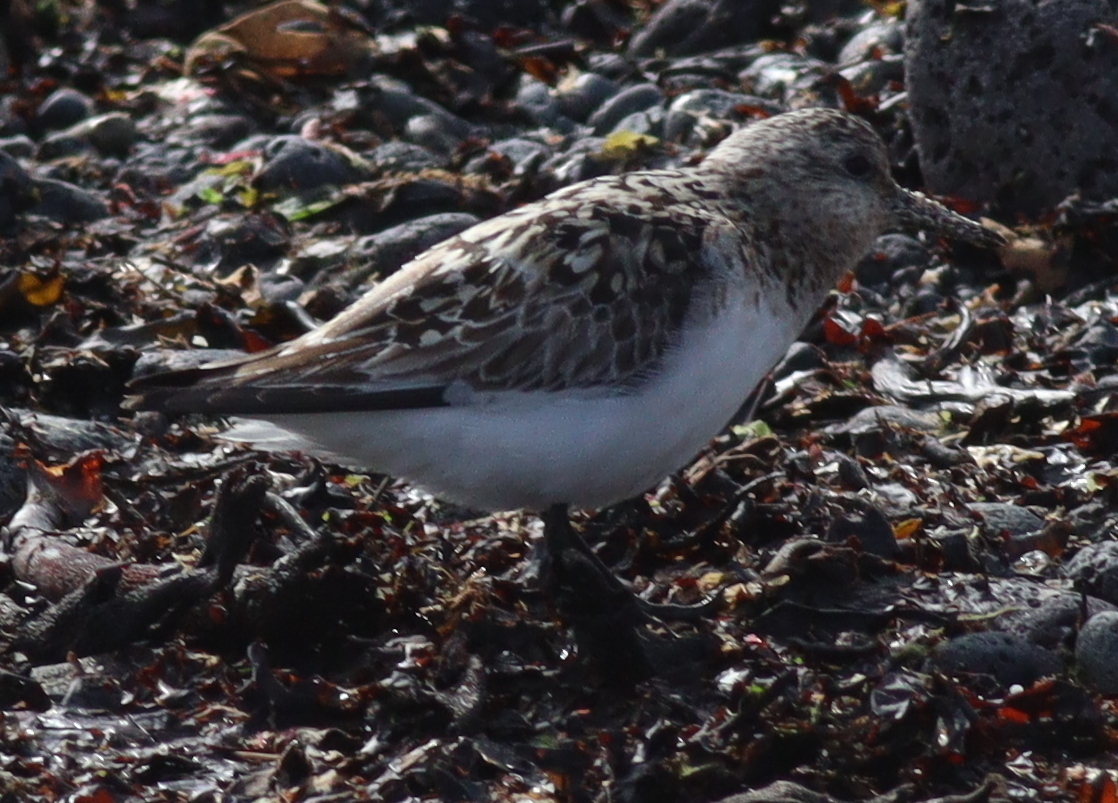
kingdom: Animalia
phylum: Chordata
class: Aves
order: Charadriiformes
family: Scolopacidae
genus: Calidris
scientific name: Calidris alba
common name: Sanderling
